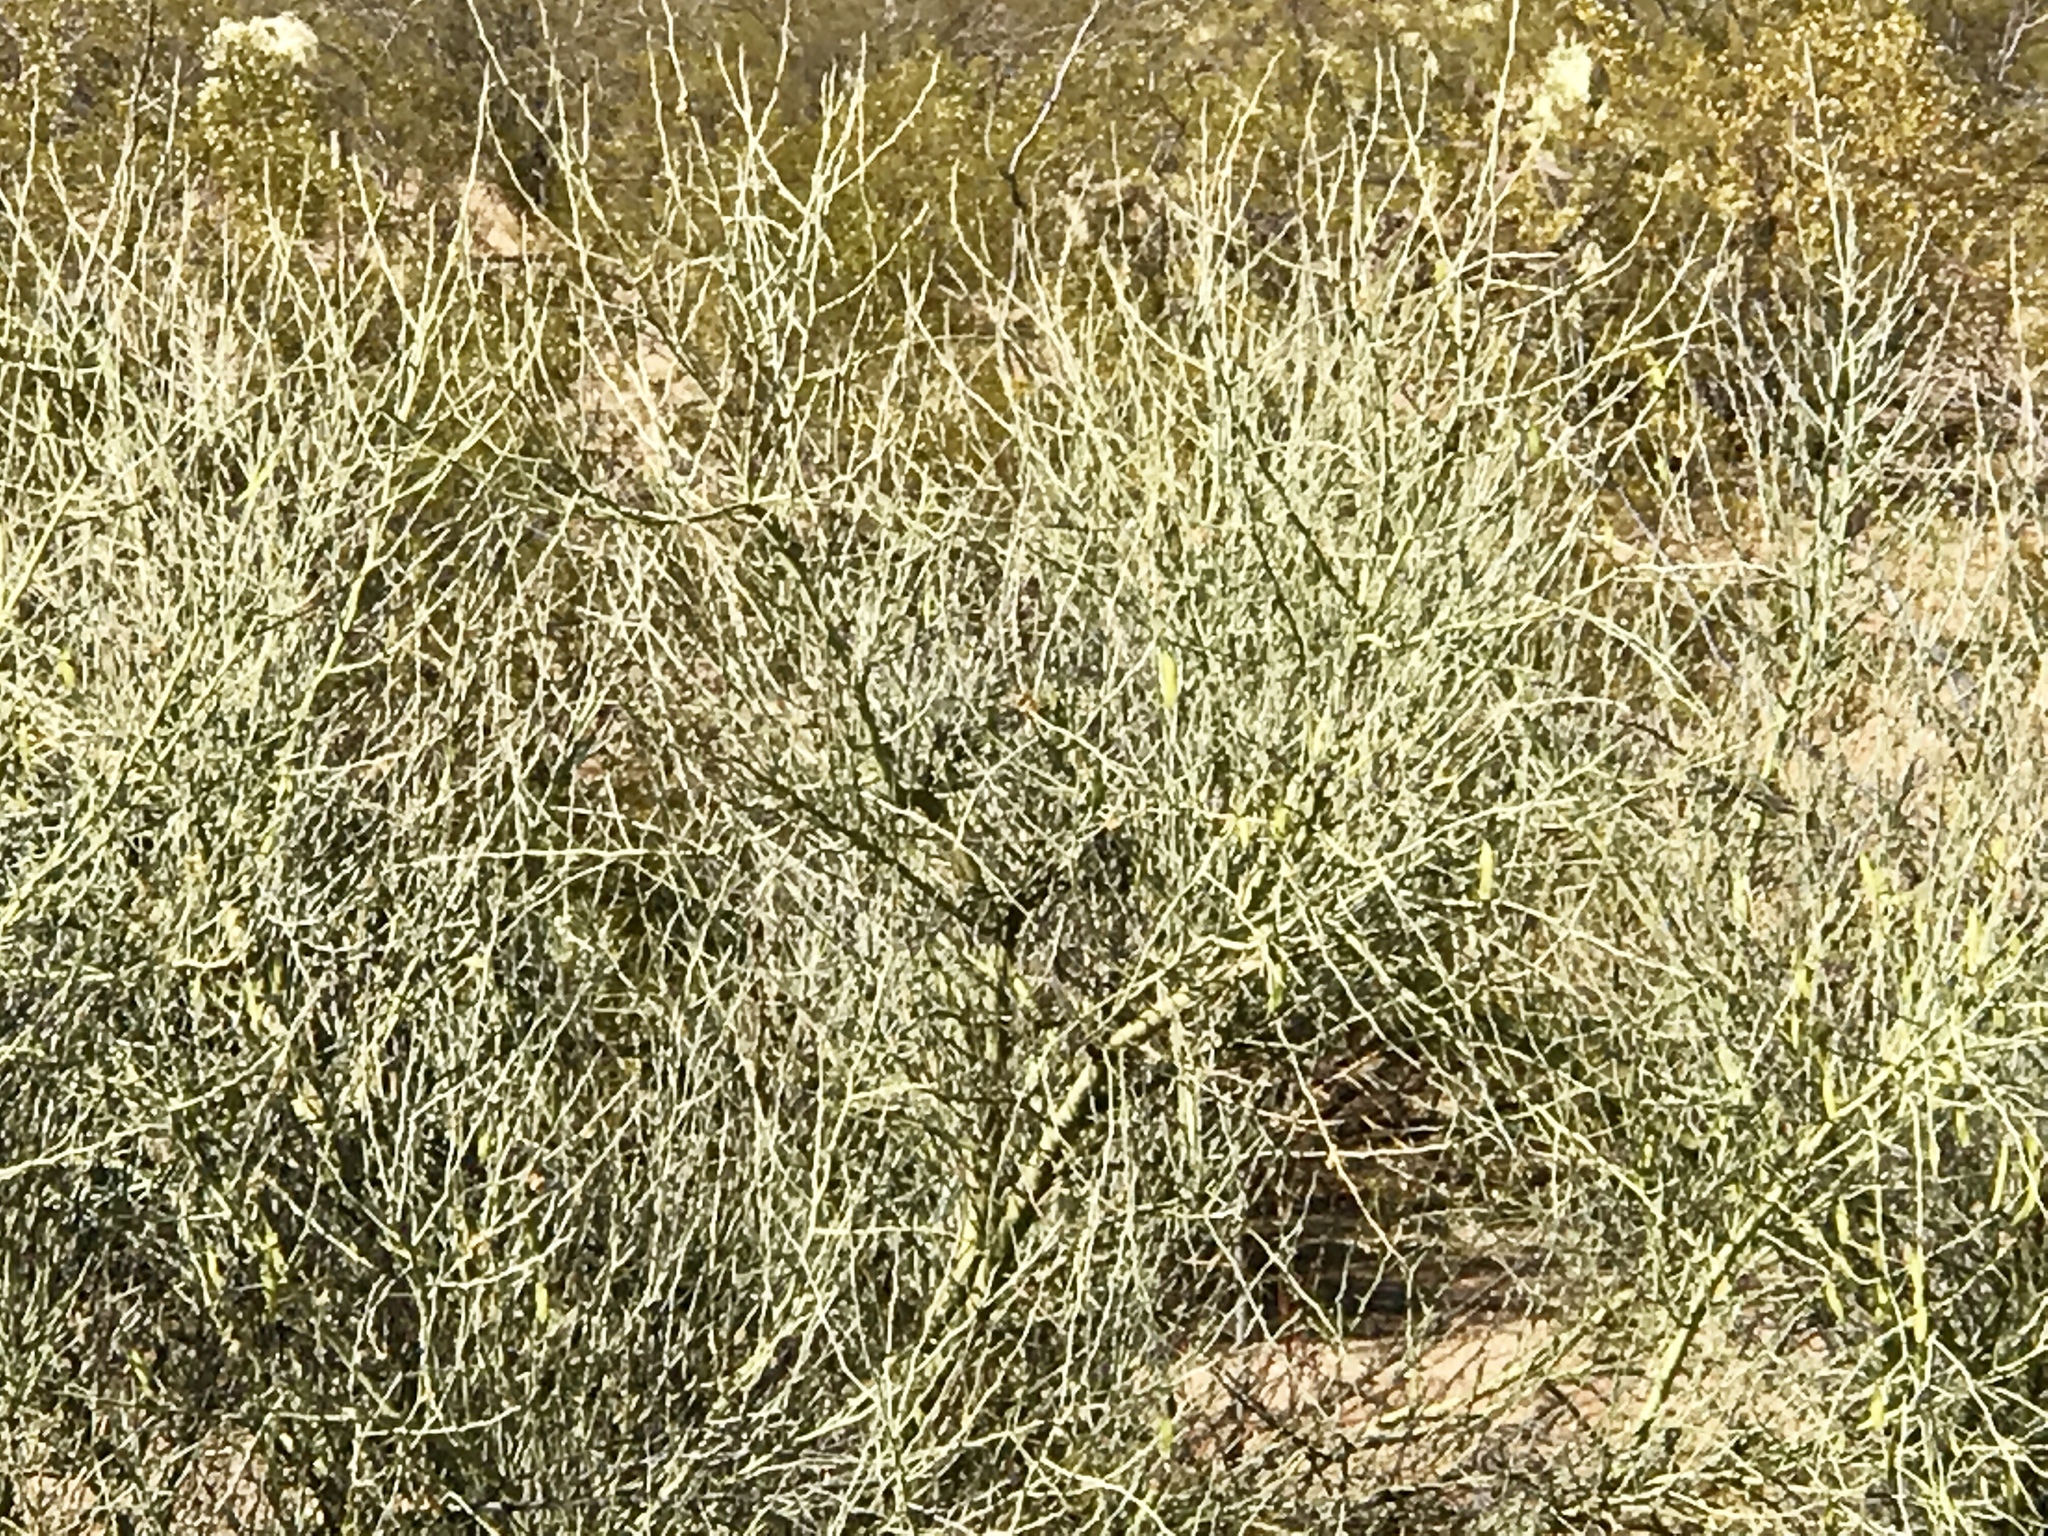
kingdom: Plantae
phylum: Tracheophyta
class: Magnoliopsida
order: Fabales
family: Fabaceae
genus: Parkinsonia
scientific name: Parkinsonia florida
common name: Blue paloverde
